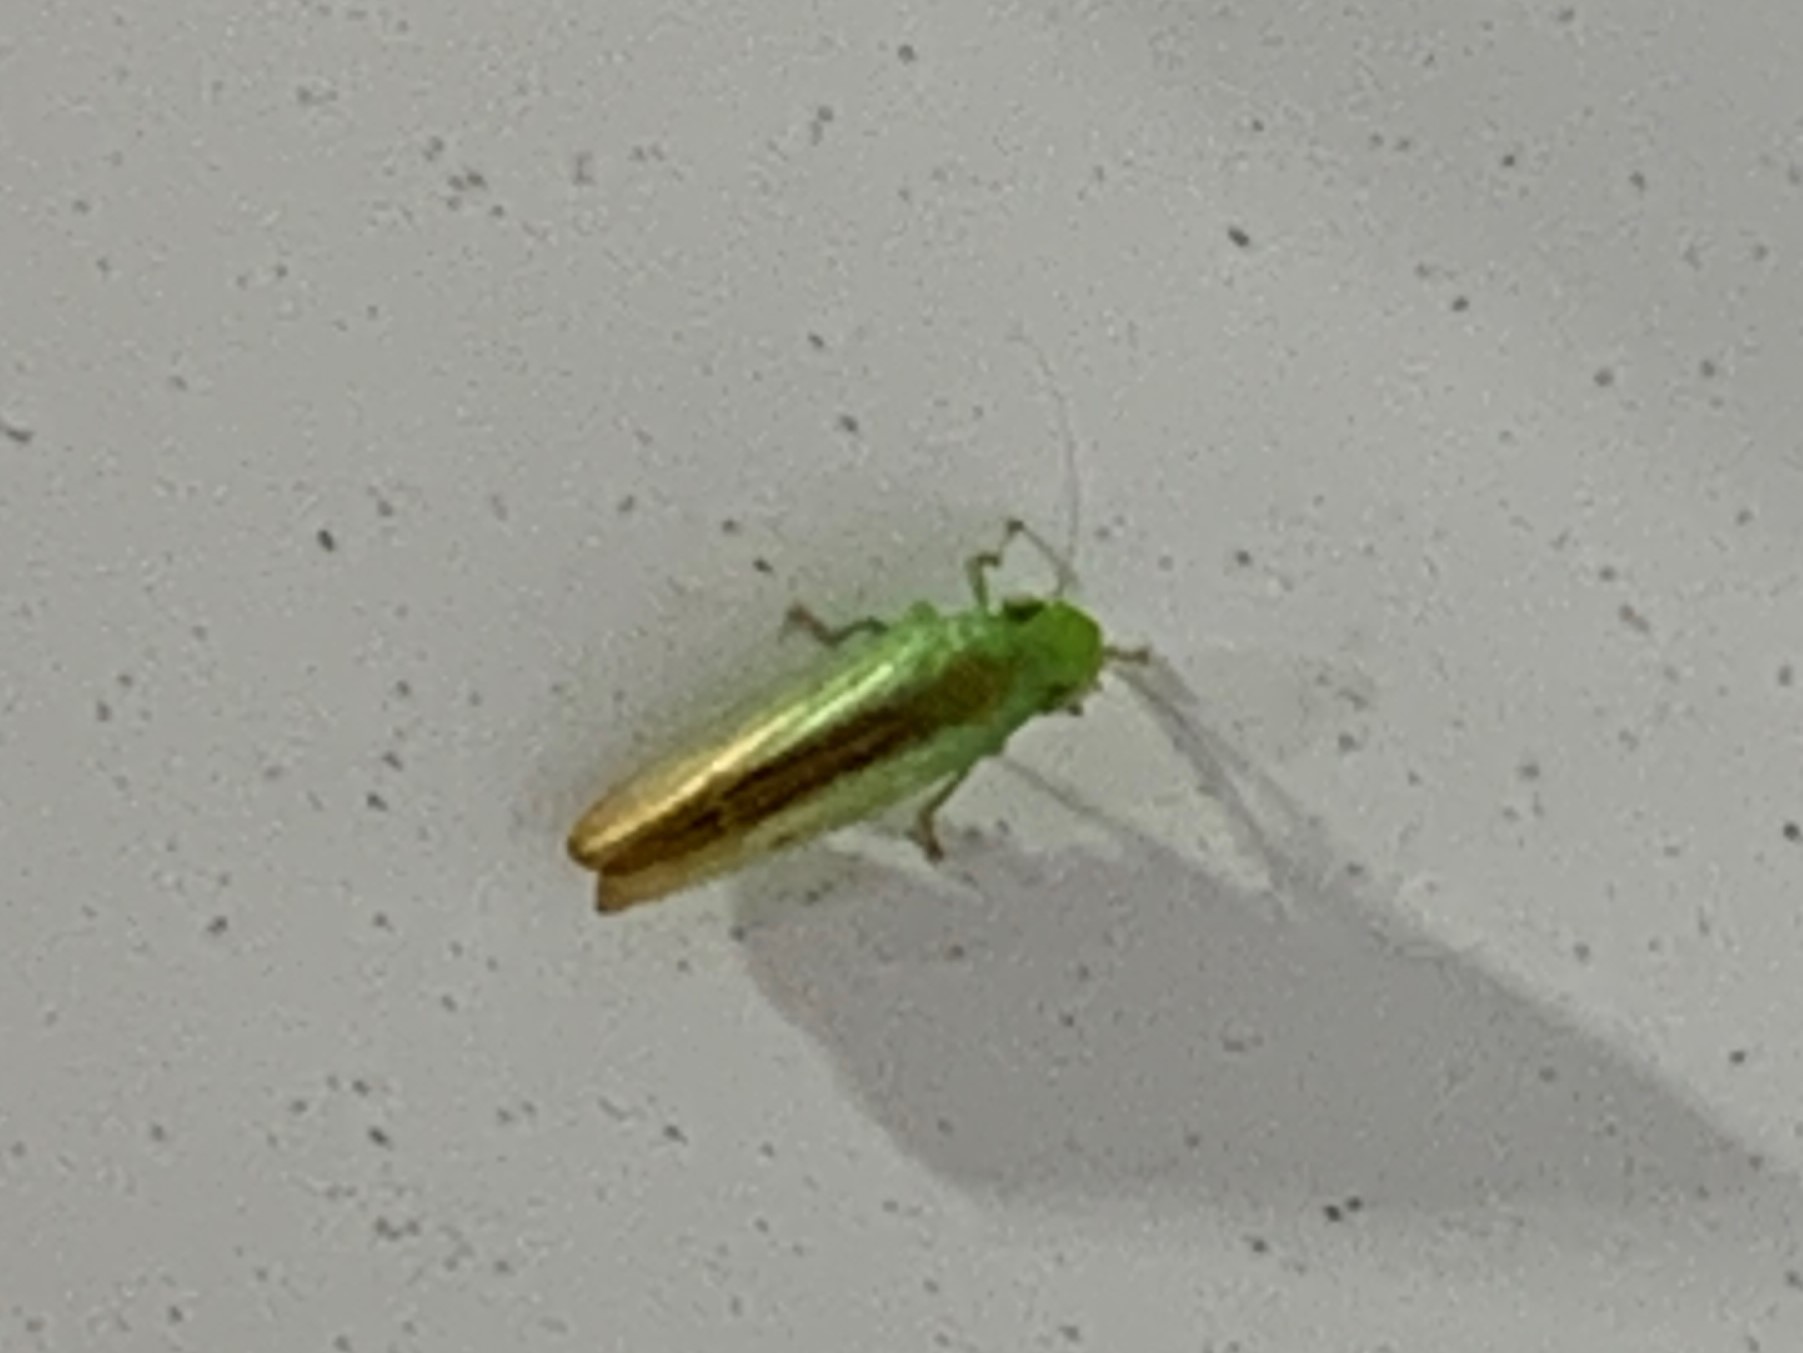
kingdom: Animalia
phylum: Arthropoda
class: Insecta
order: Hemiptera
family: Cicadellidae
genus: Neocoelidia
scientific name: Neocoelidia tuberculata
